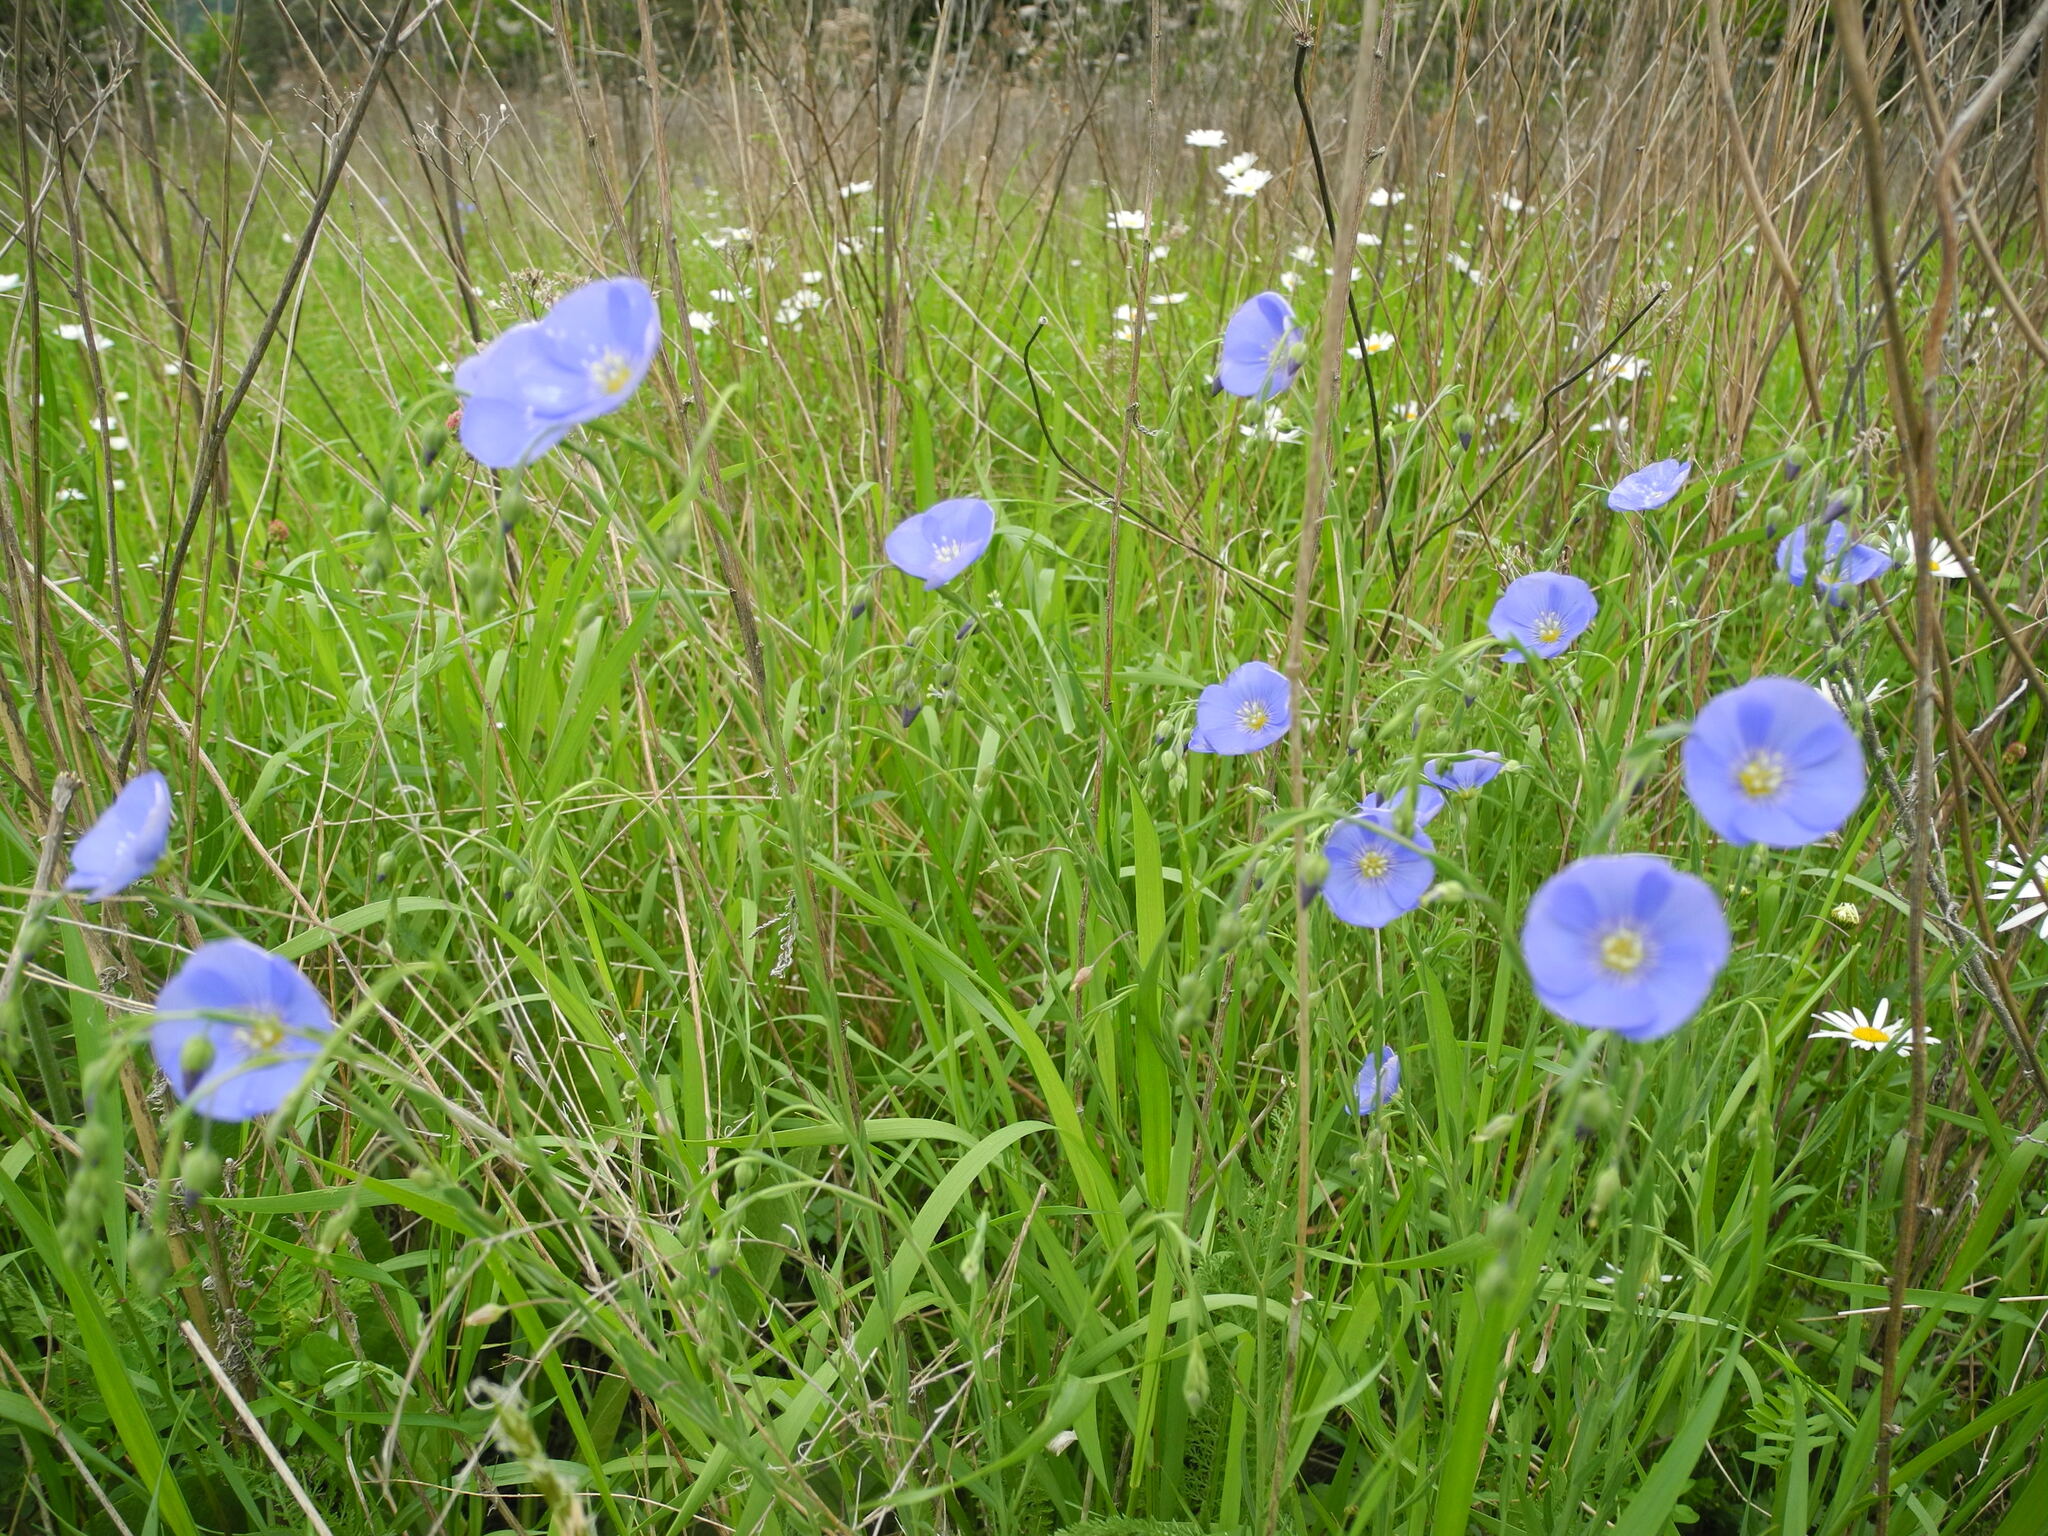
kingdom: Plantae
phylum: Tracheophyta
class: Magnoliopsida
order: Malpighiales
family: Linaceae
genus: Linum
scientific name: Linum perenne
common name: Blue flax
